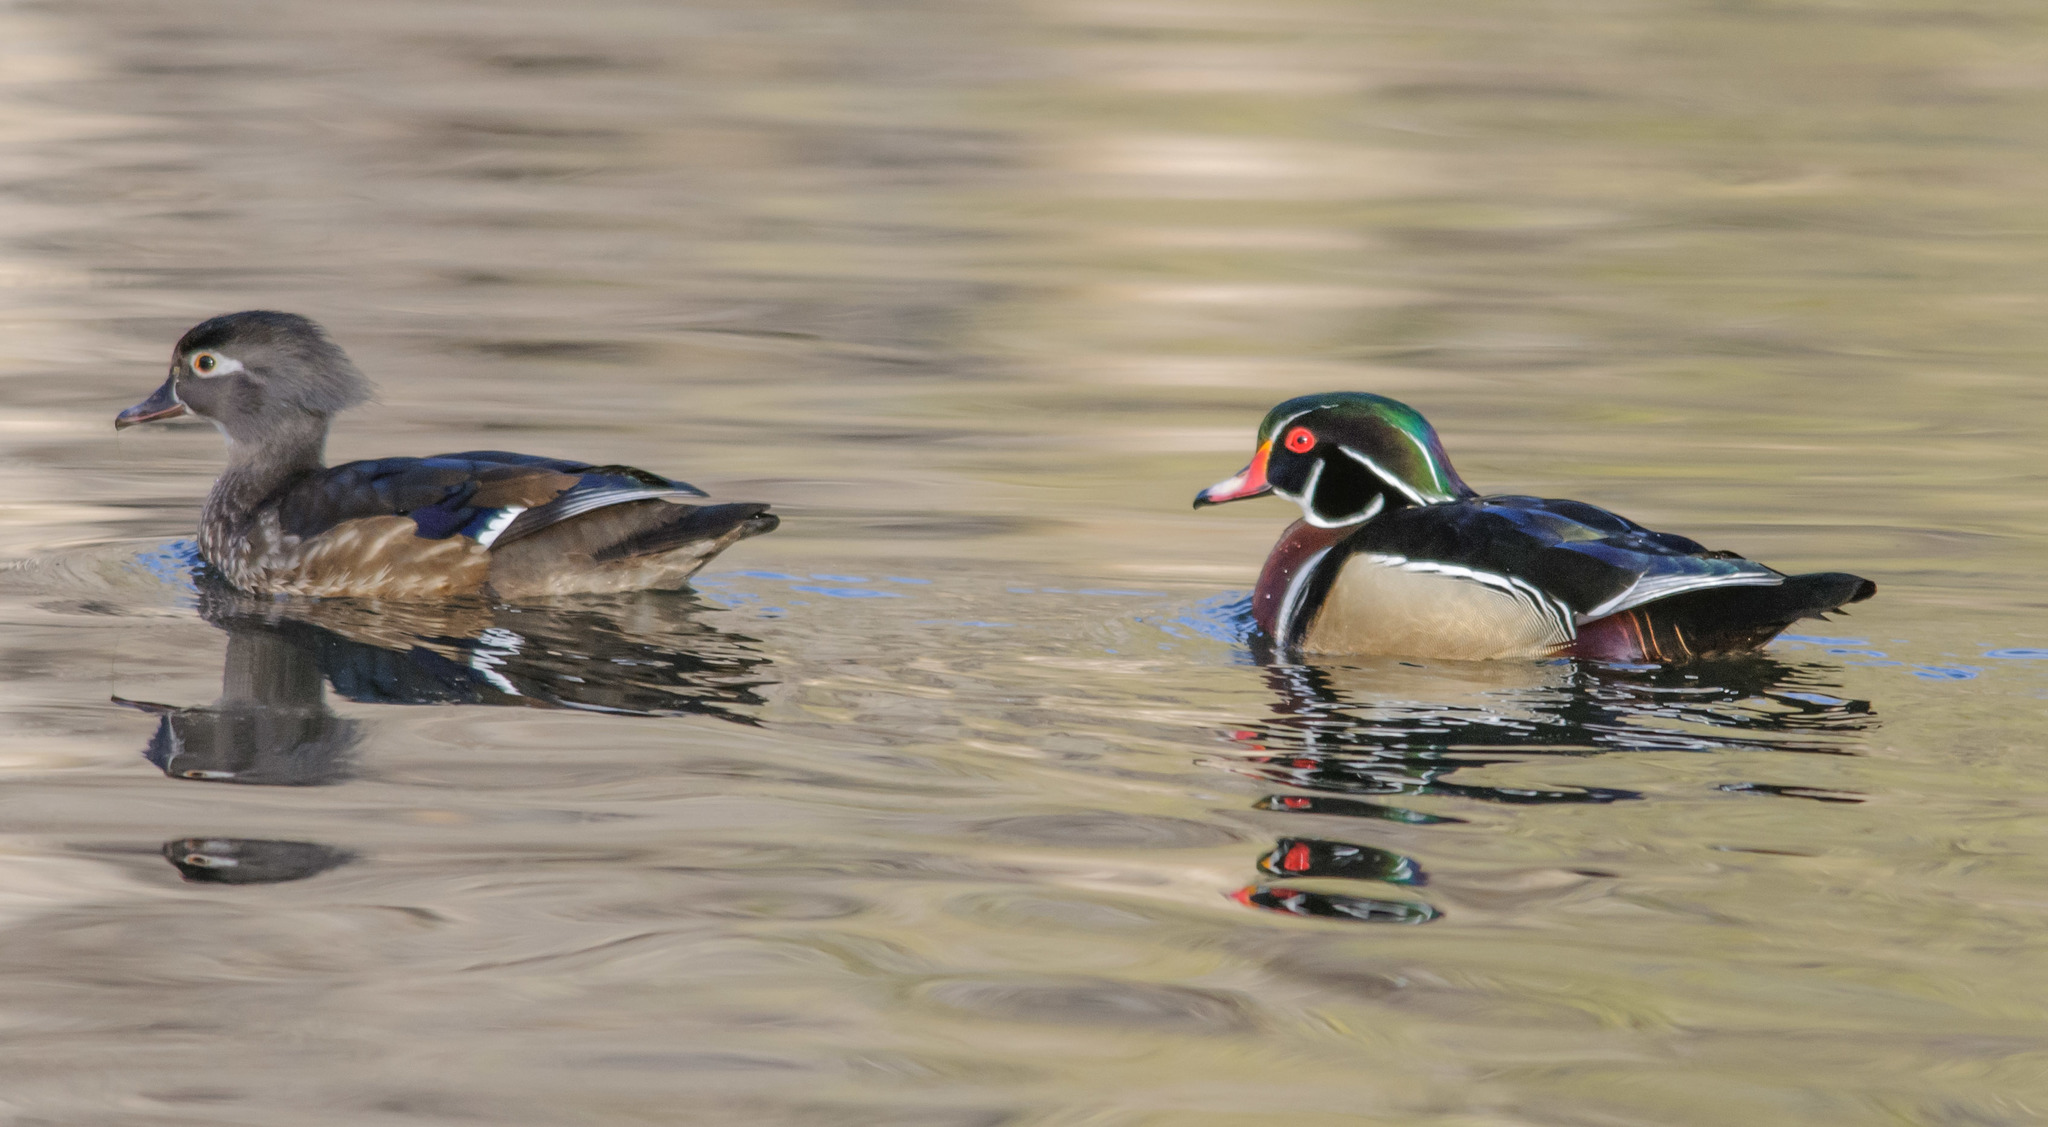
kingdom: Animalia
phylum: Chordata
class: Aves
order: Anseriformes
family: Anatidae
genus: Aix
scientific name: Aix sponsa
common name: Wood duck
